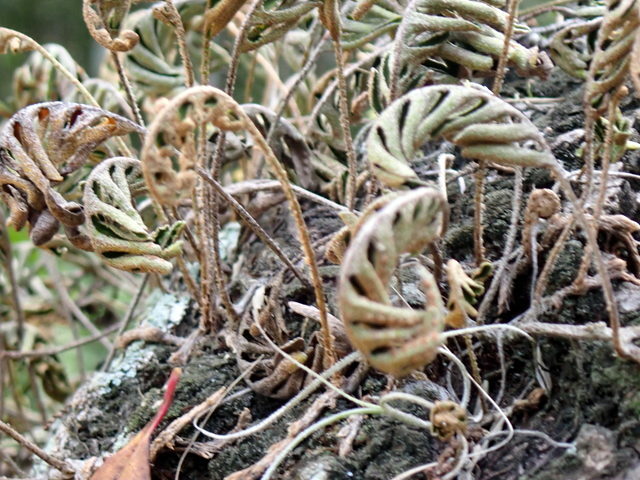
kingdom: Plantae
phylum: Tracheophyta
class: Polypodiopsida
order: Polypodiales
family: Polypodiaceae
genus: Pleopeltis
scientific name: Pleopeltis michauxiana
